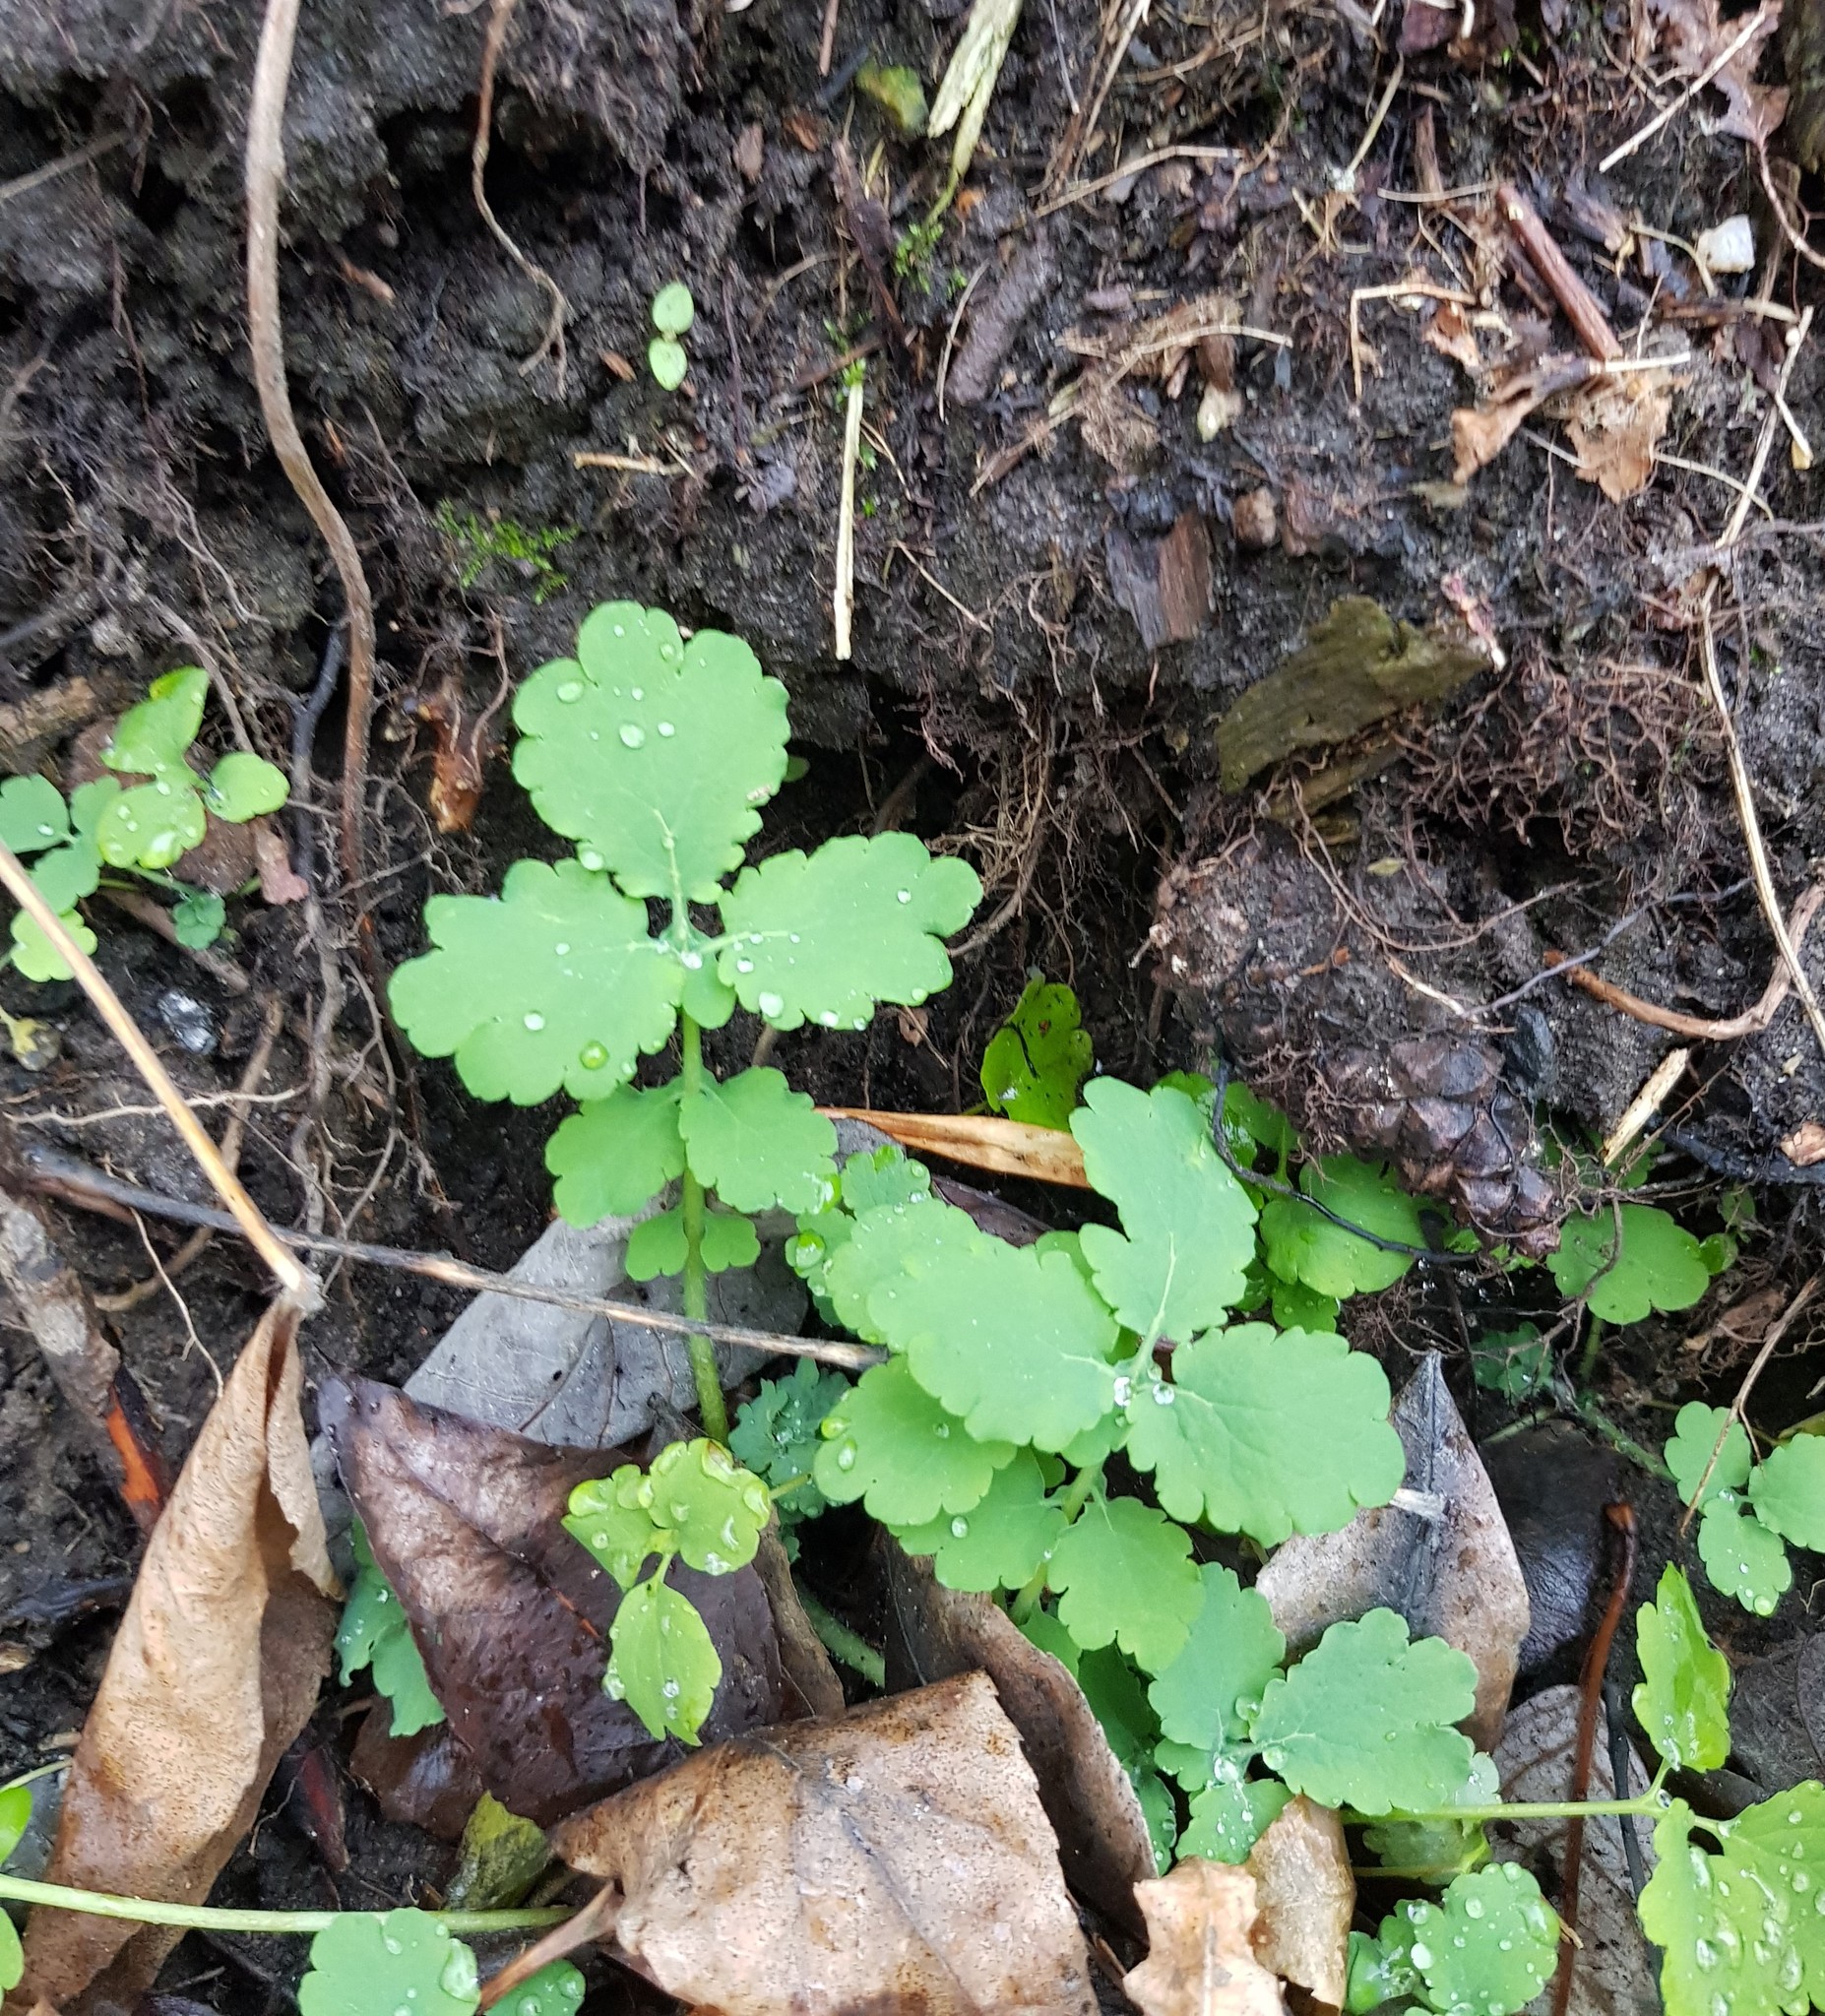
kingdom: Plantae
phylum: Tracheophyta
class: Magnoliopsida
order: Ranunculales
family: Papaveraceae
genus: Chelidonium
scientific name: Chelidonium majus
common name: Greater celandine
